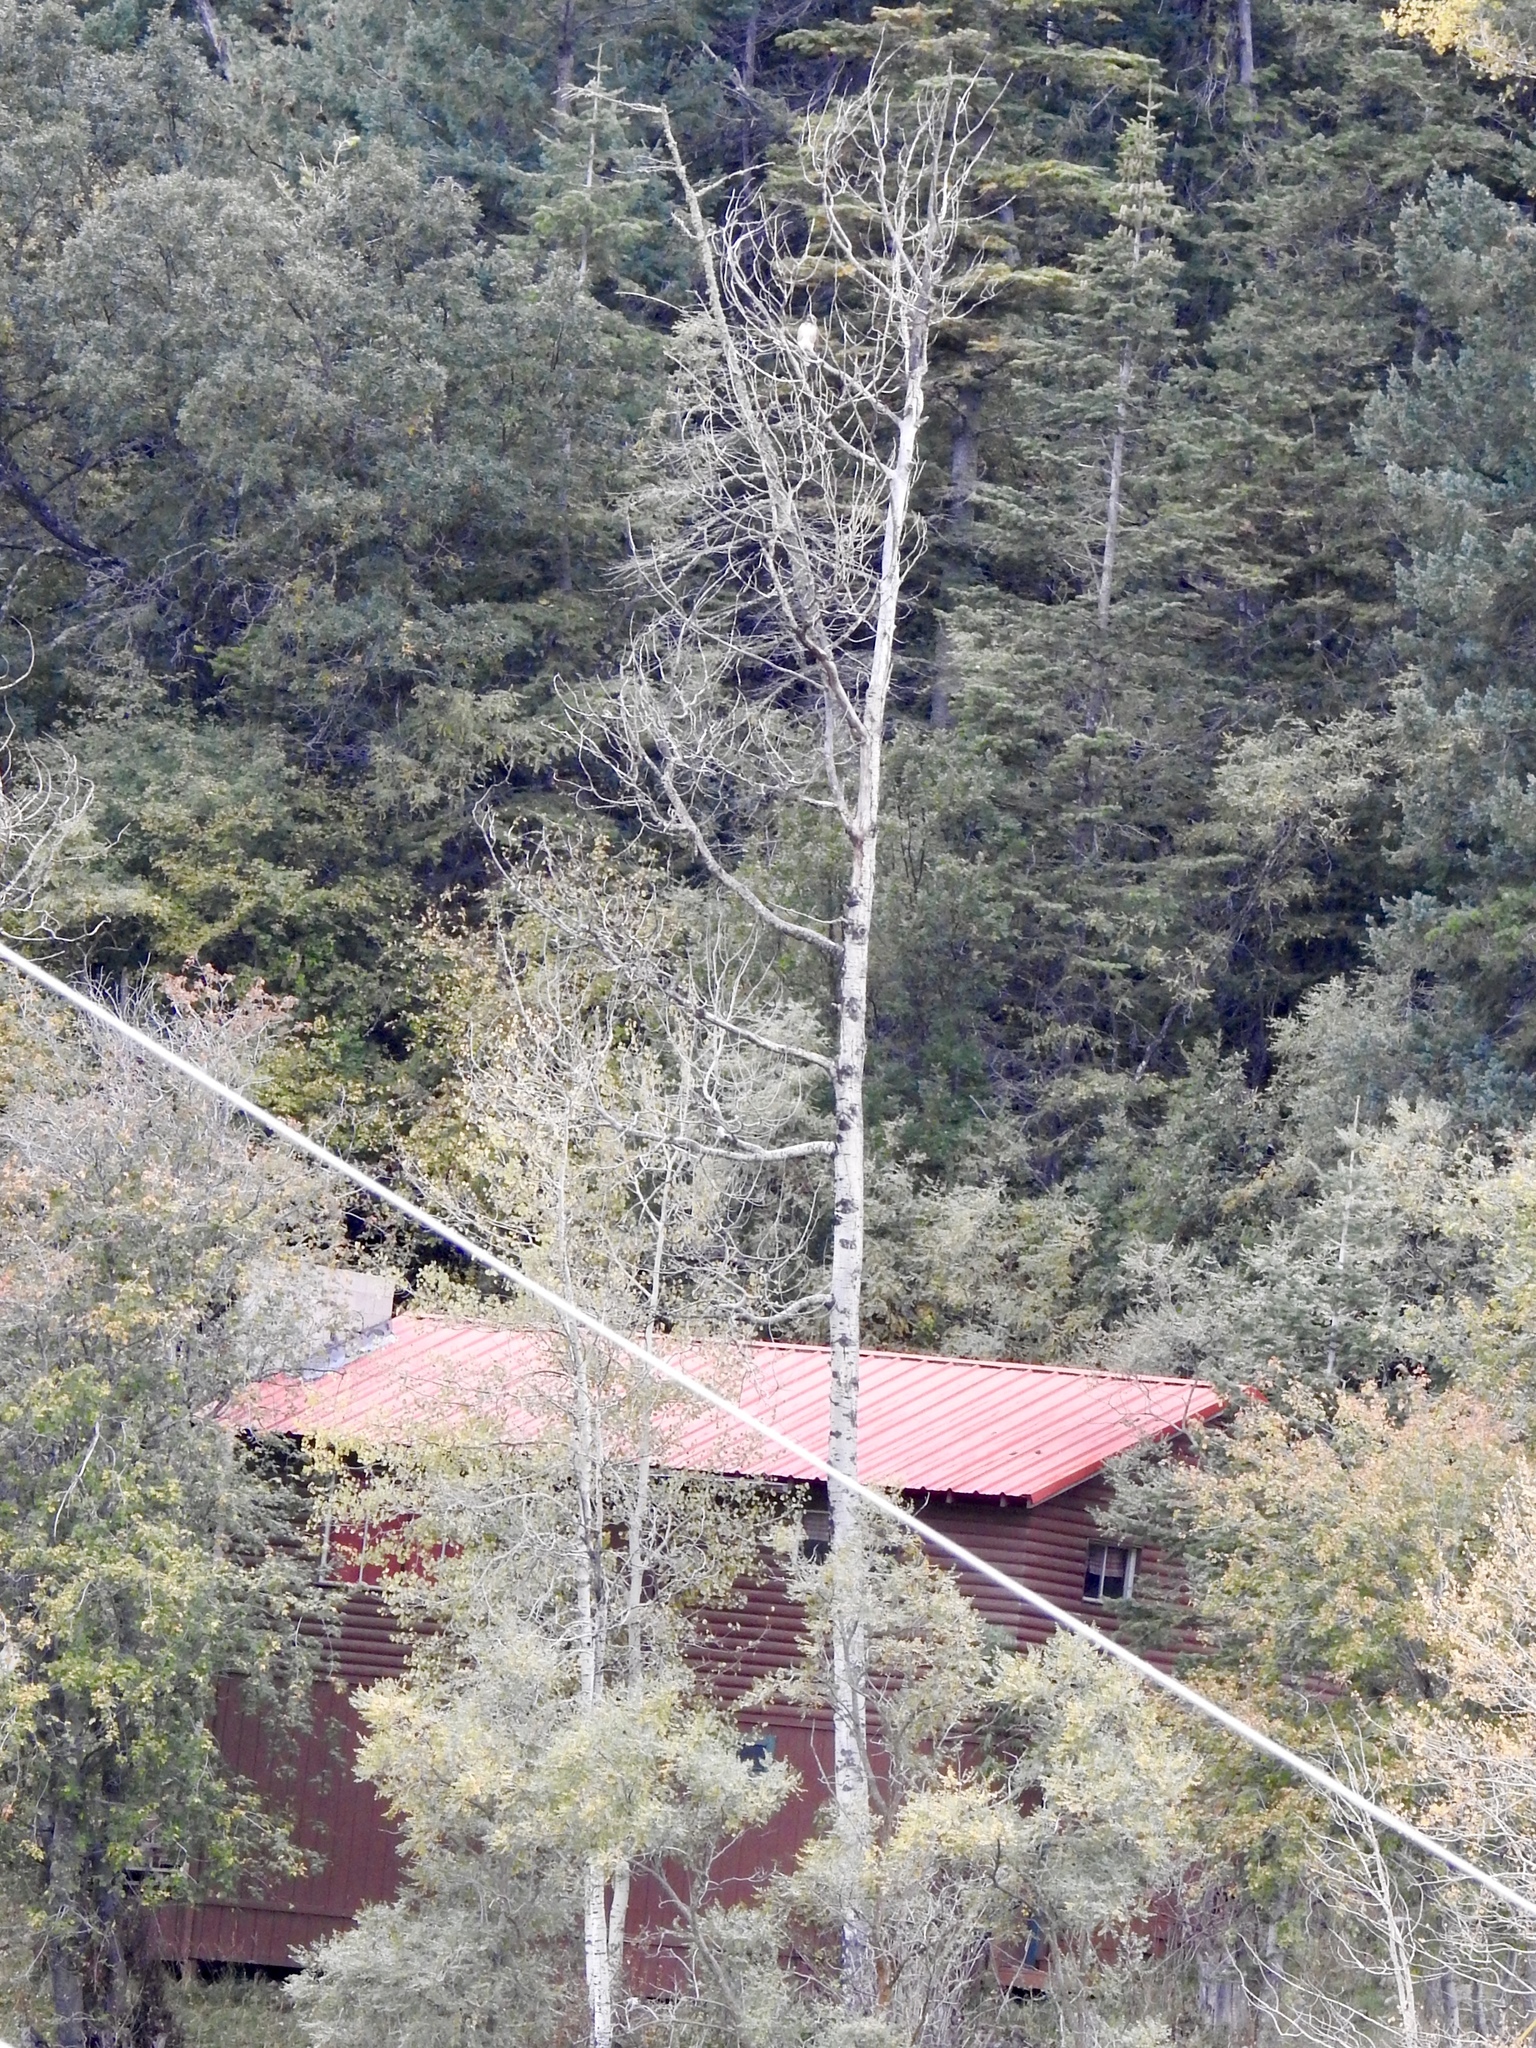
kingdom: Animalia
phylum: Chordata
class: Aves
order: Accipitriformes
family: Accipitridae
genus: Buteo
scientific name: Buteo jamaicensis
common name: Red-tailed hawk
